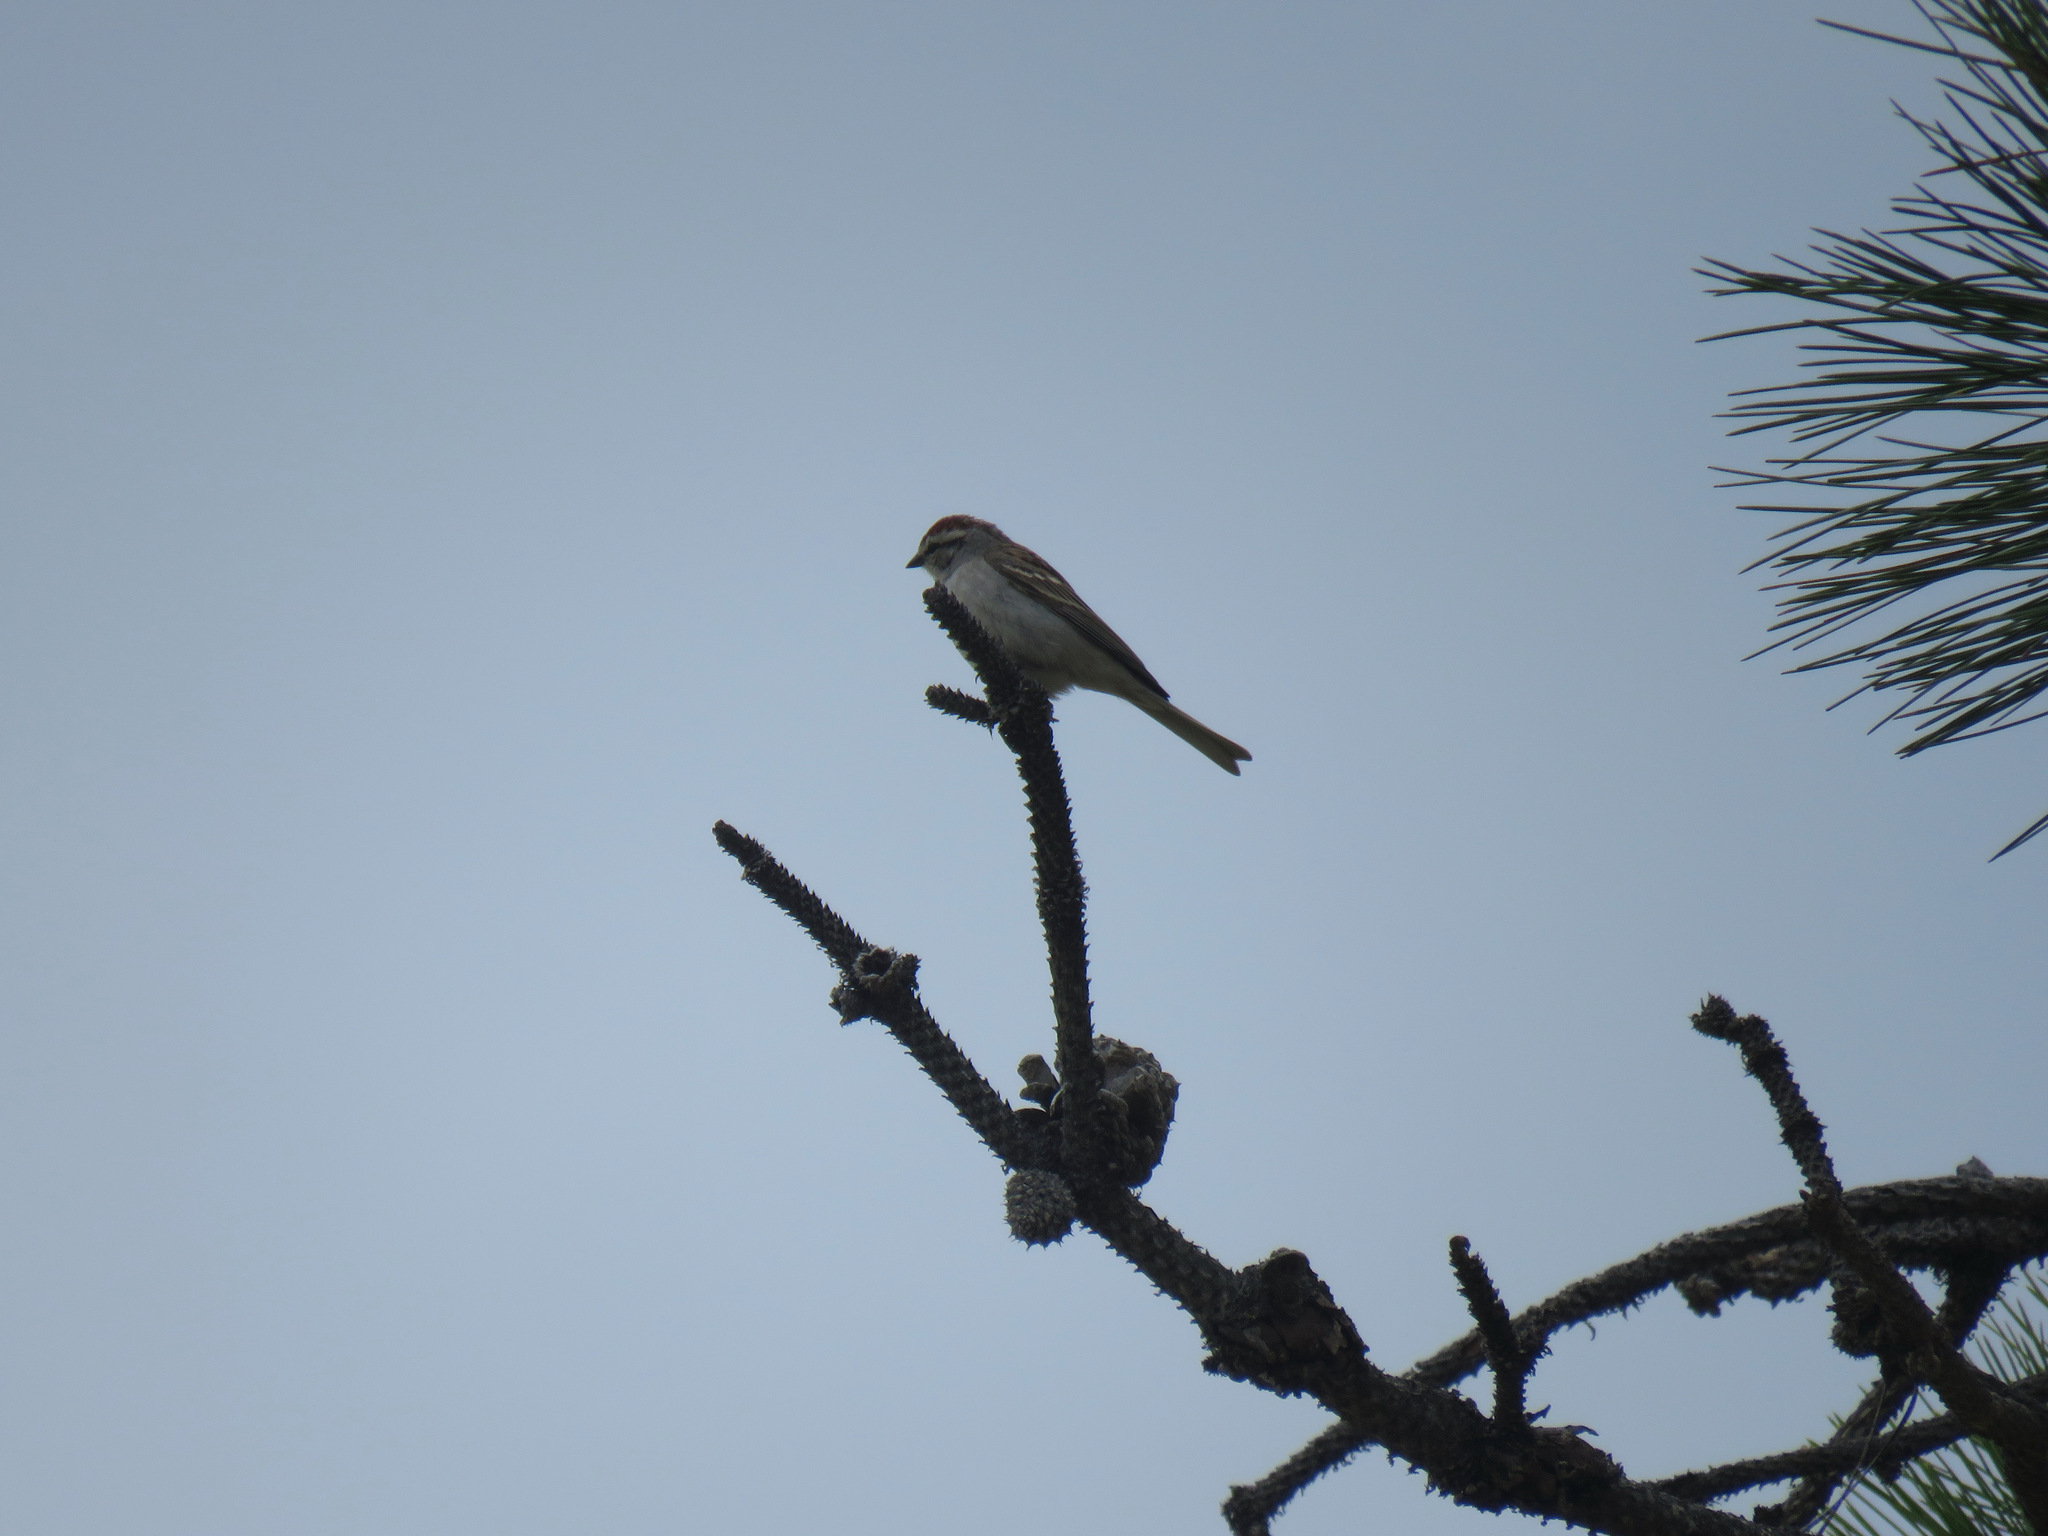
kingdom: Animalia
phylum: Chordata
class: Aves
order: Passeriformes
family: Passerellidae
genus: Spizella
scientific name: Spizella passerina
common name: Chipping sparrow
